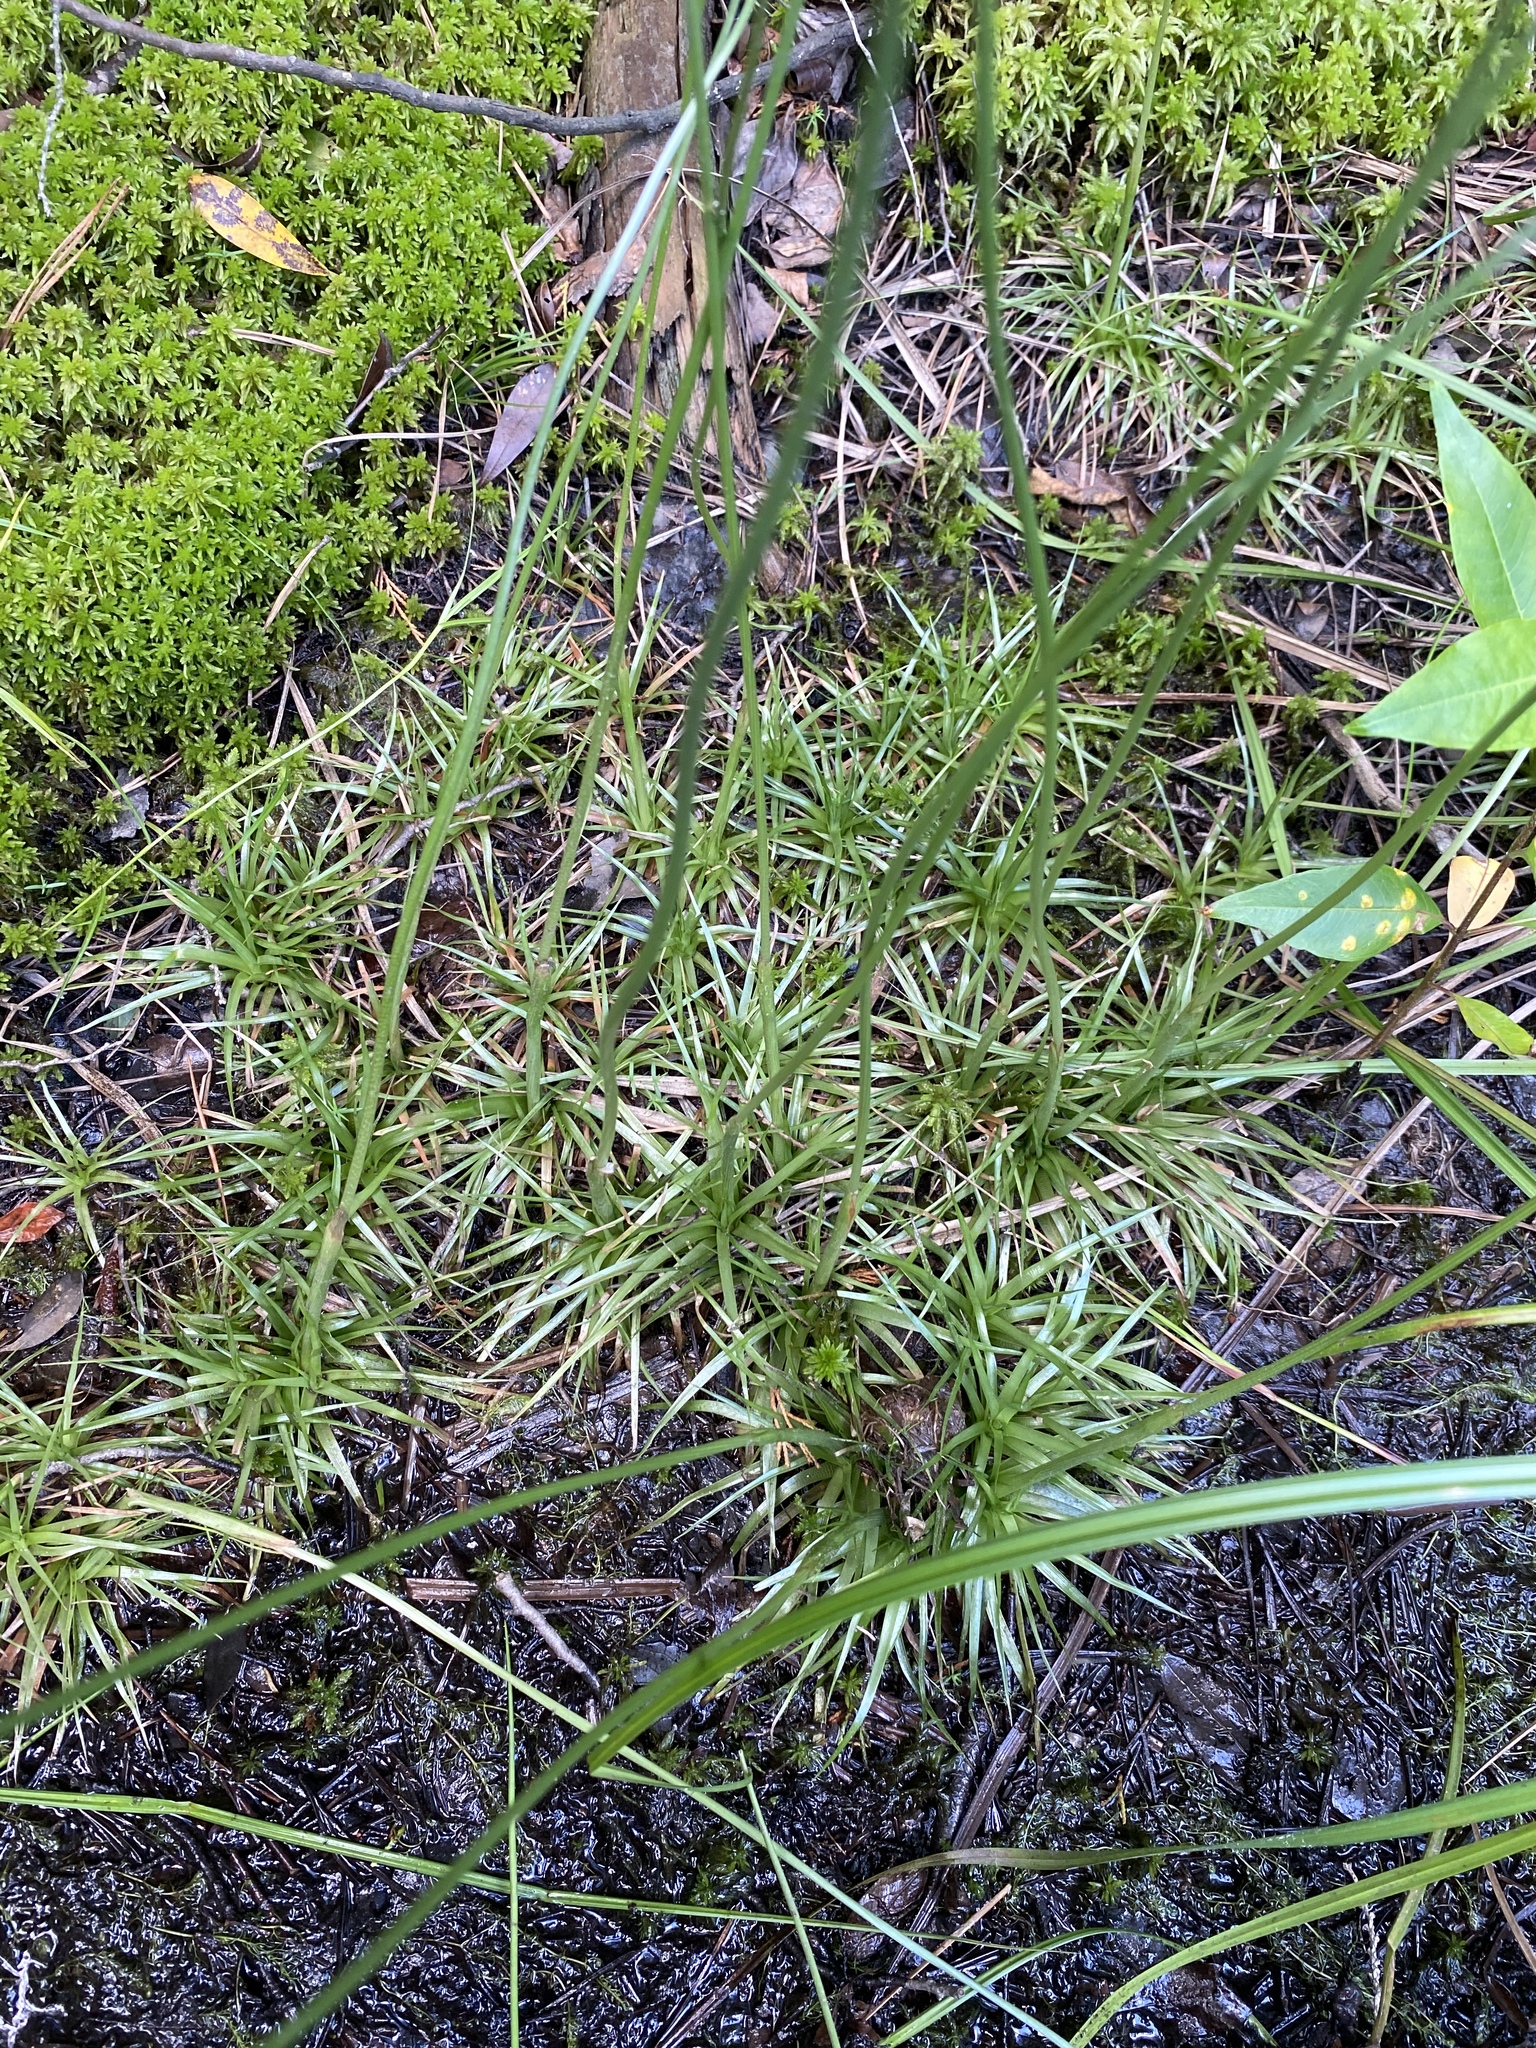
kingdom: Plantae
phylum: Tracheophyta
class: Liliopsida
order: Poales
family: Eriocaulaceae
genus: Eriocaulon
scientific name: Eriocaulon compressum
